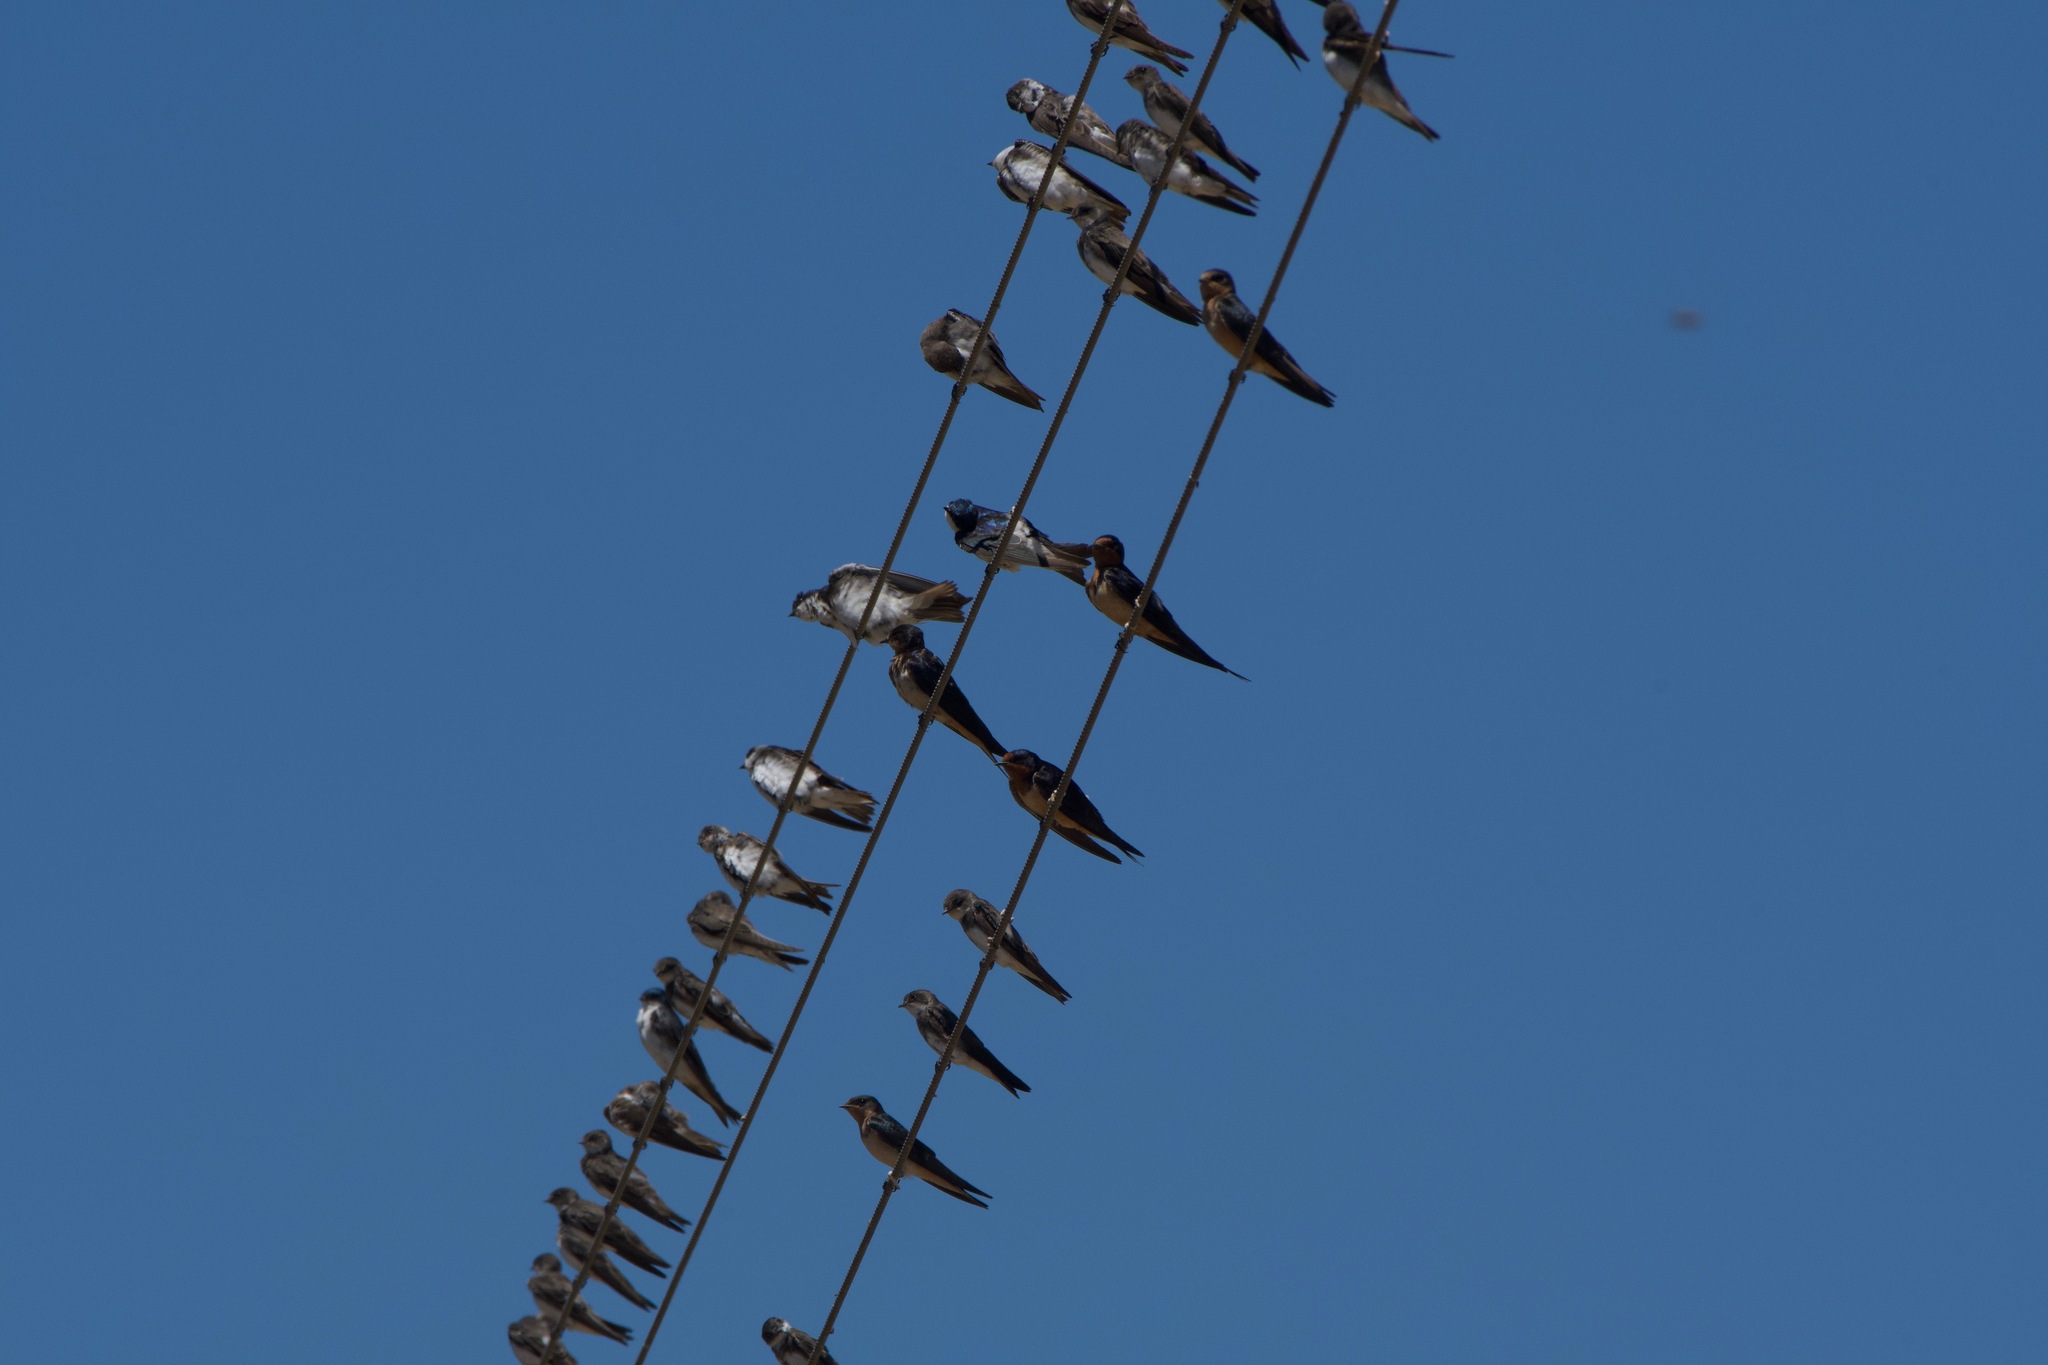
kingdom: Animalia
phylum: Chordata
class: Aves
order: Passeriformes
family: Hirundinidae
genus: Riparia
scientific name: Riparia riparia
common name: Sand martin
